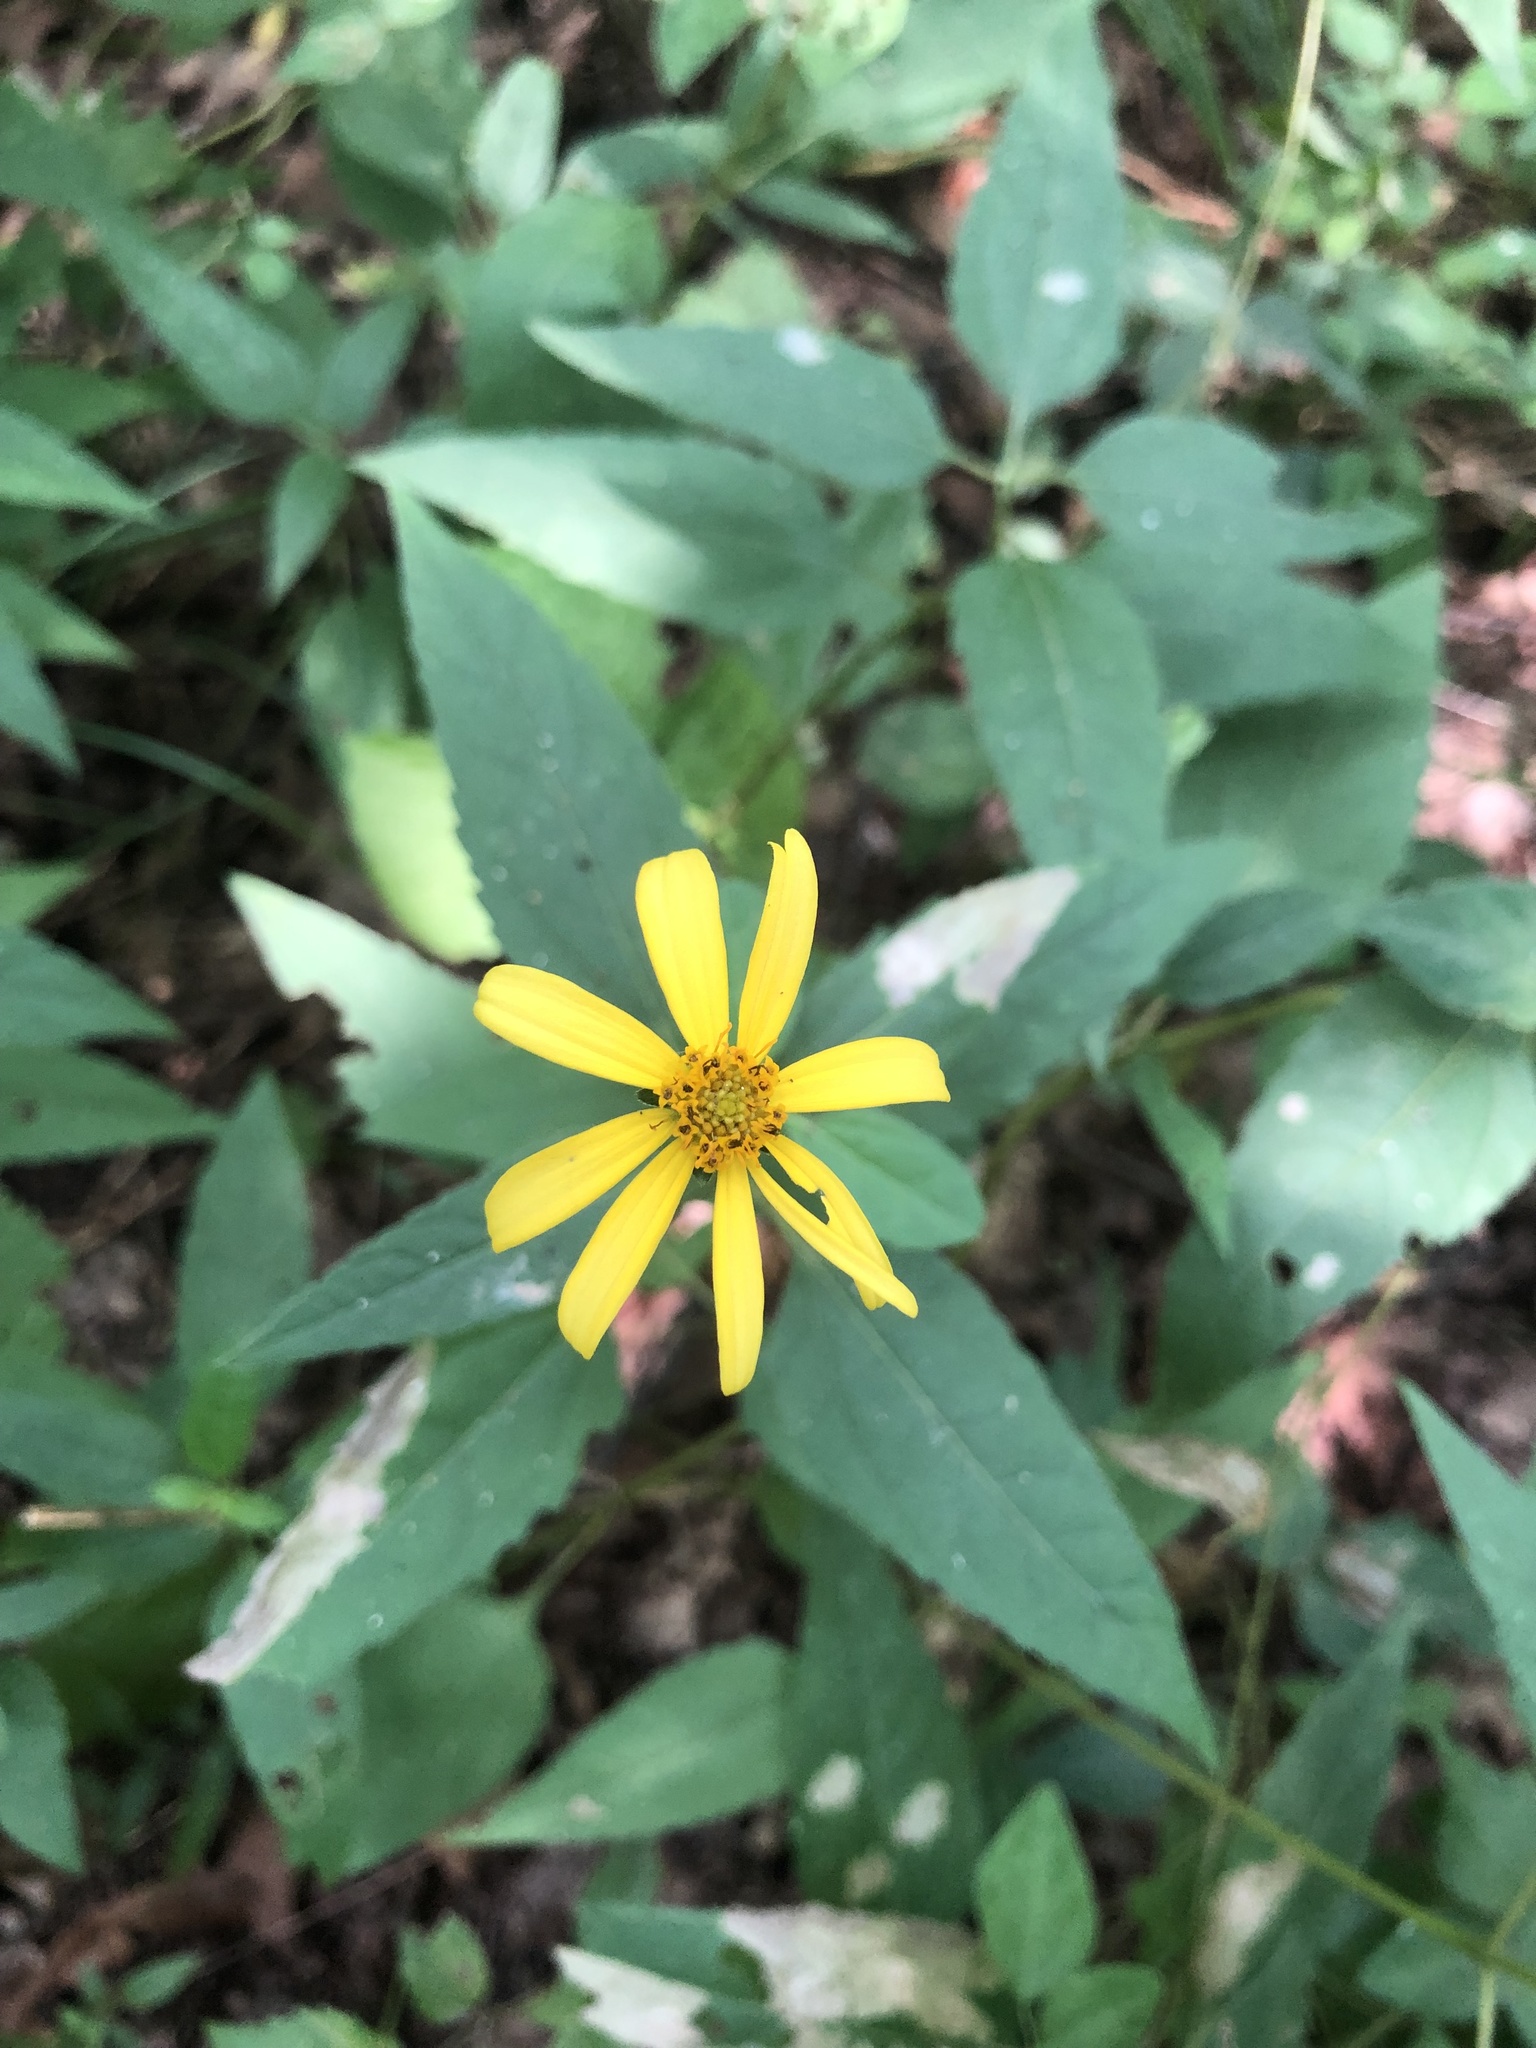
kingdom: Plantae
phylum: Tracheophyta
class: Magnoliopsida
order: Asterales
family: Asteraceae
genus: Heliopsis
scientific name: Heliopsis gracilis
